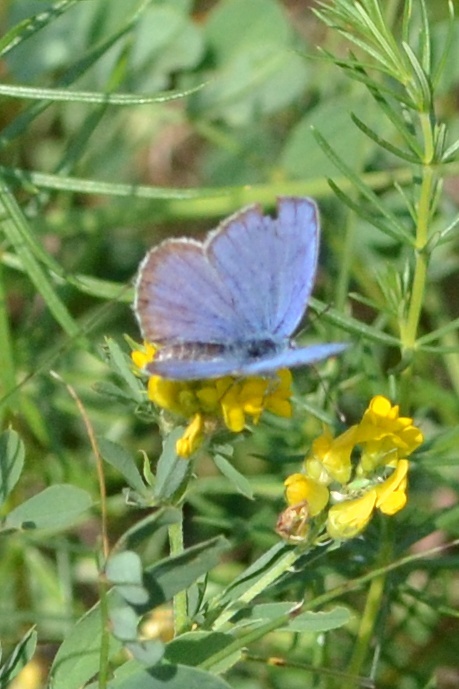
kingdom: Animalia
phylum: Arthropoda
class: Insecta
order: Lepidoptera
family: Lycaenidae
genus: Plebejus
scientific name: Plebejus argus
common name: Silver-studded blue
